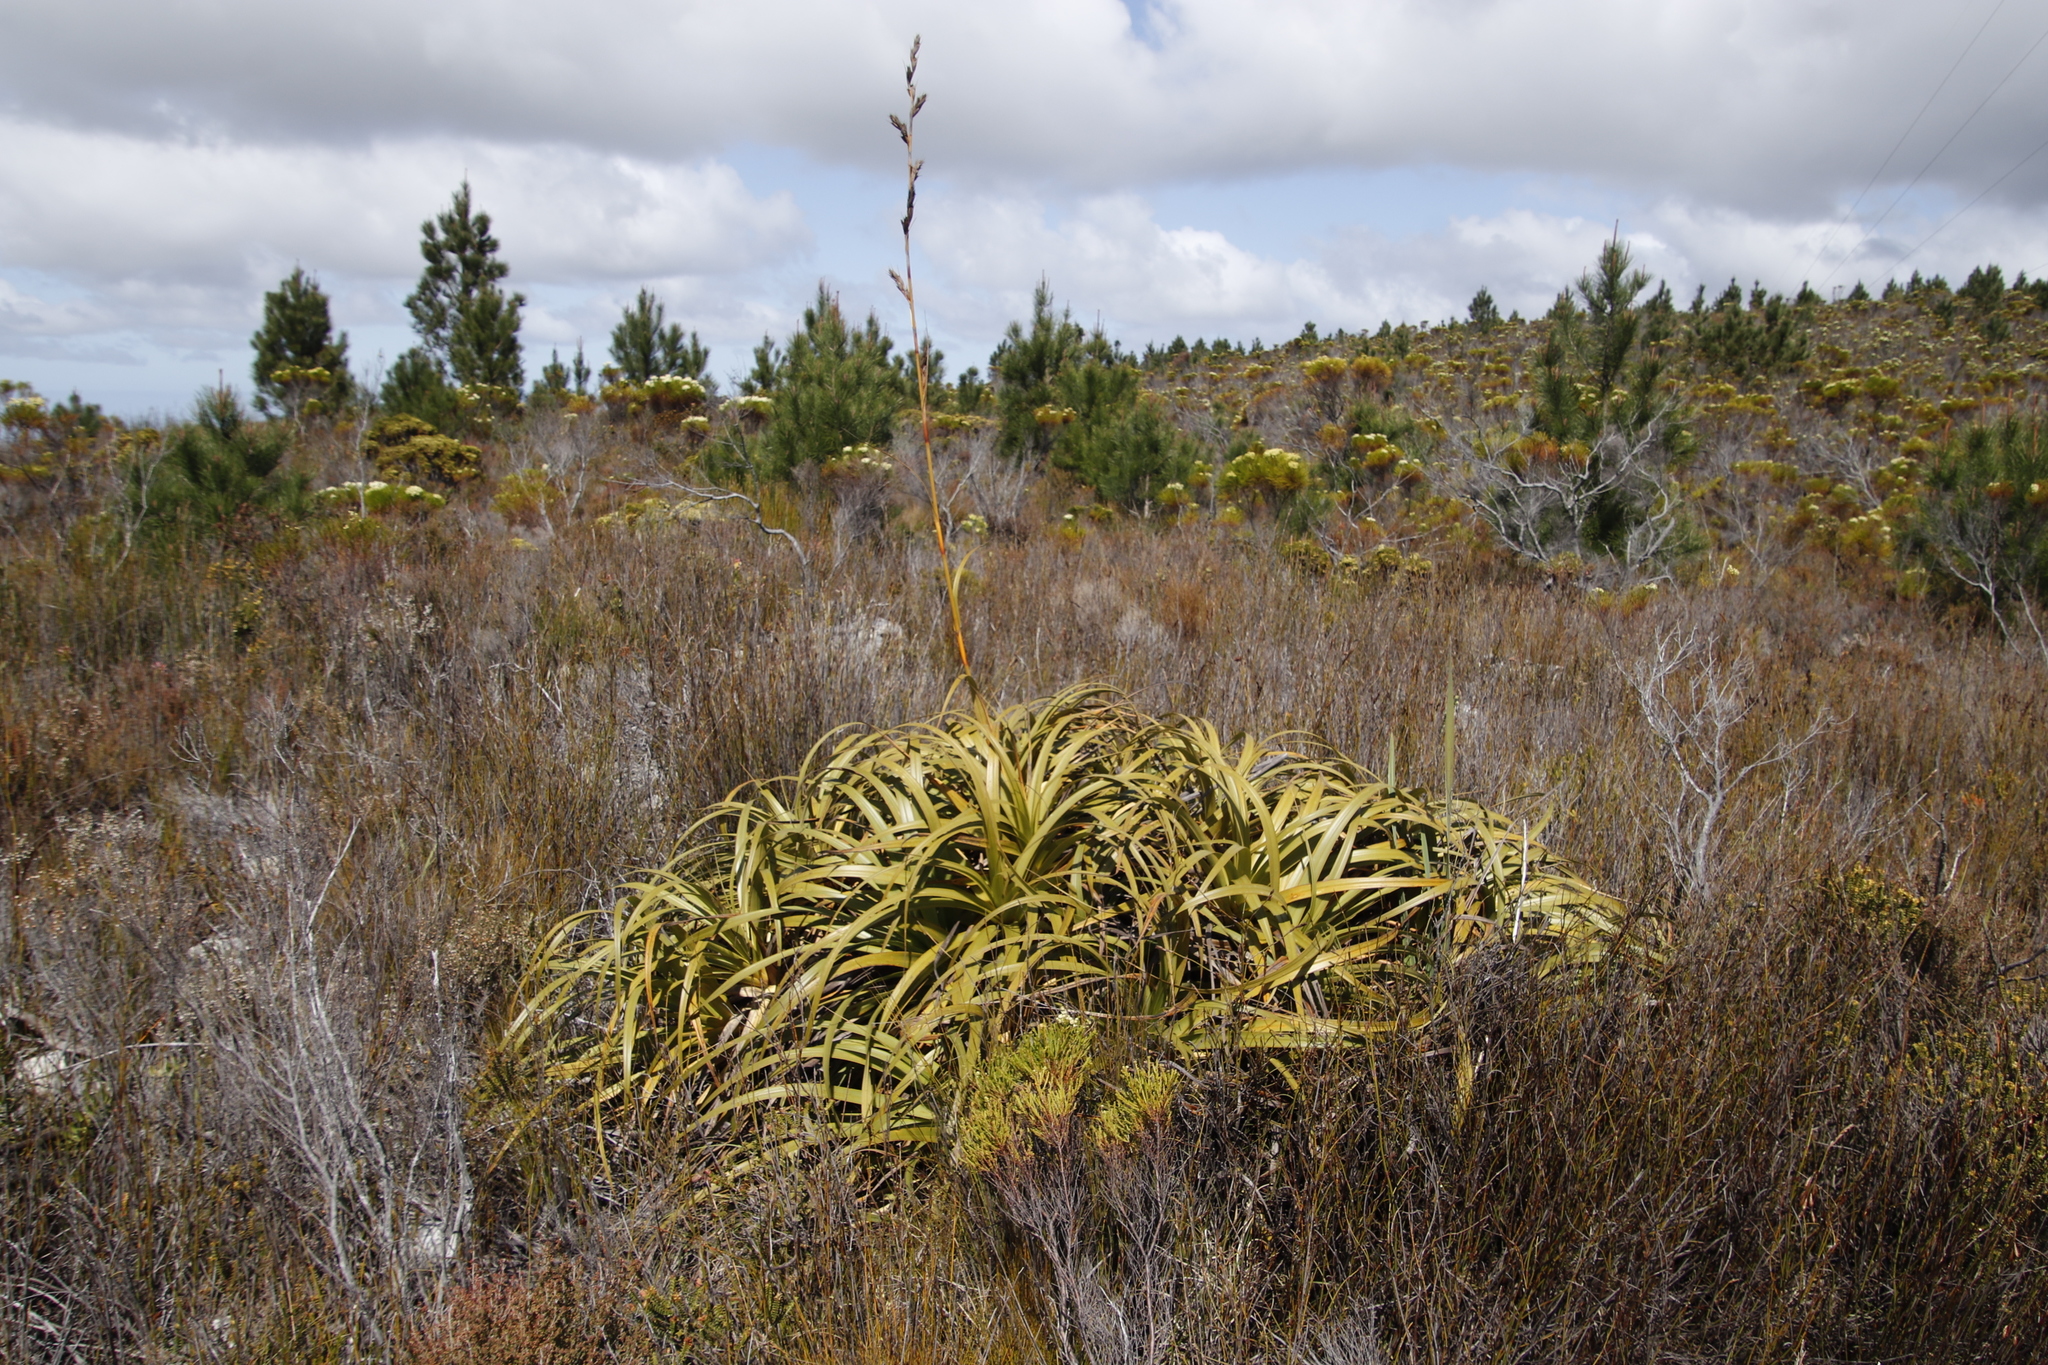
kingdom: Plantae
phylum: Tracheophyta
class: Liliopsida
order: Poales
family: Cyperaceae
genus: Tetraria
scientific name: Tetraria thermalis
